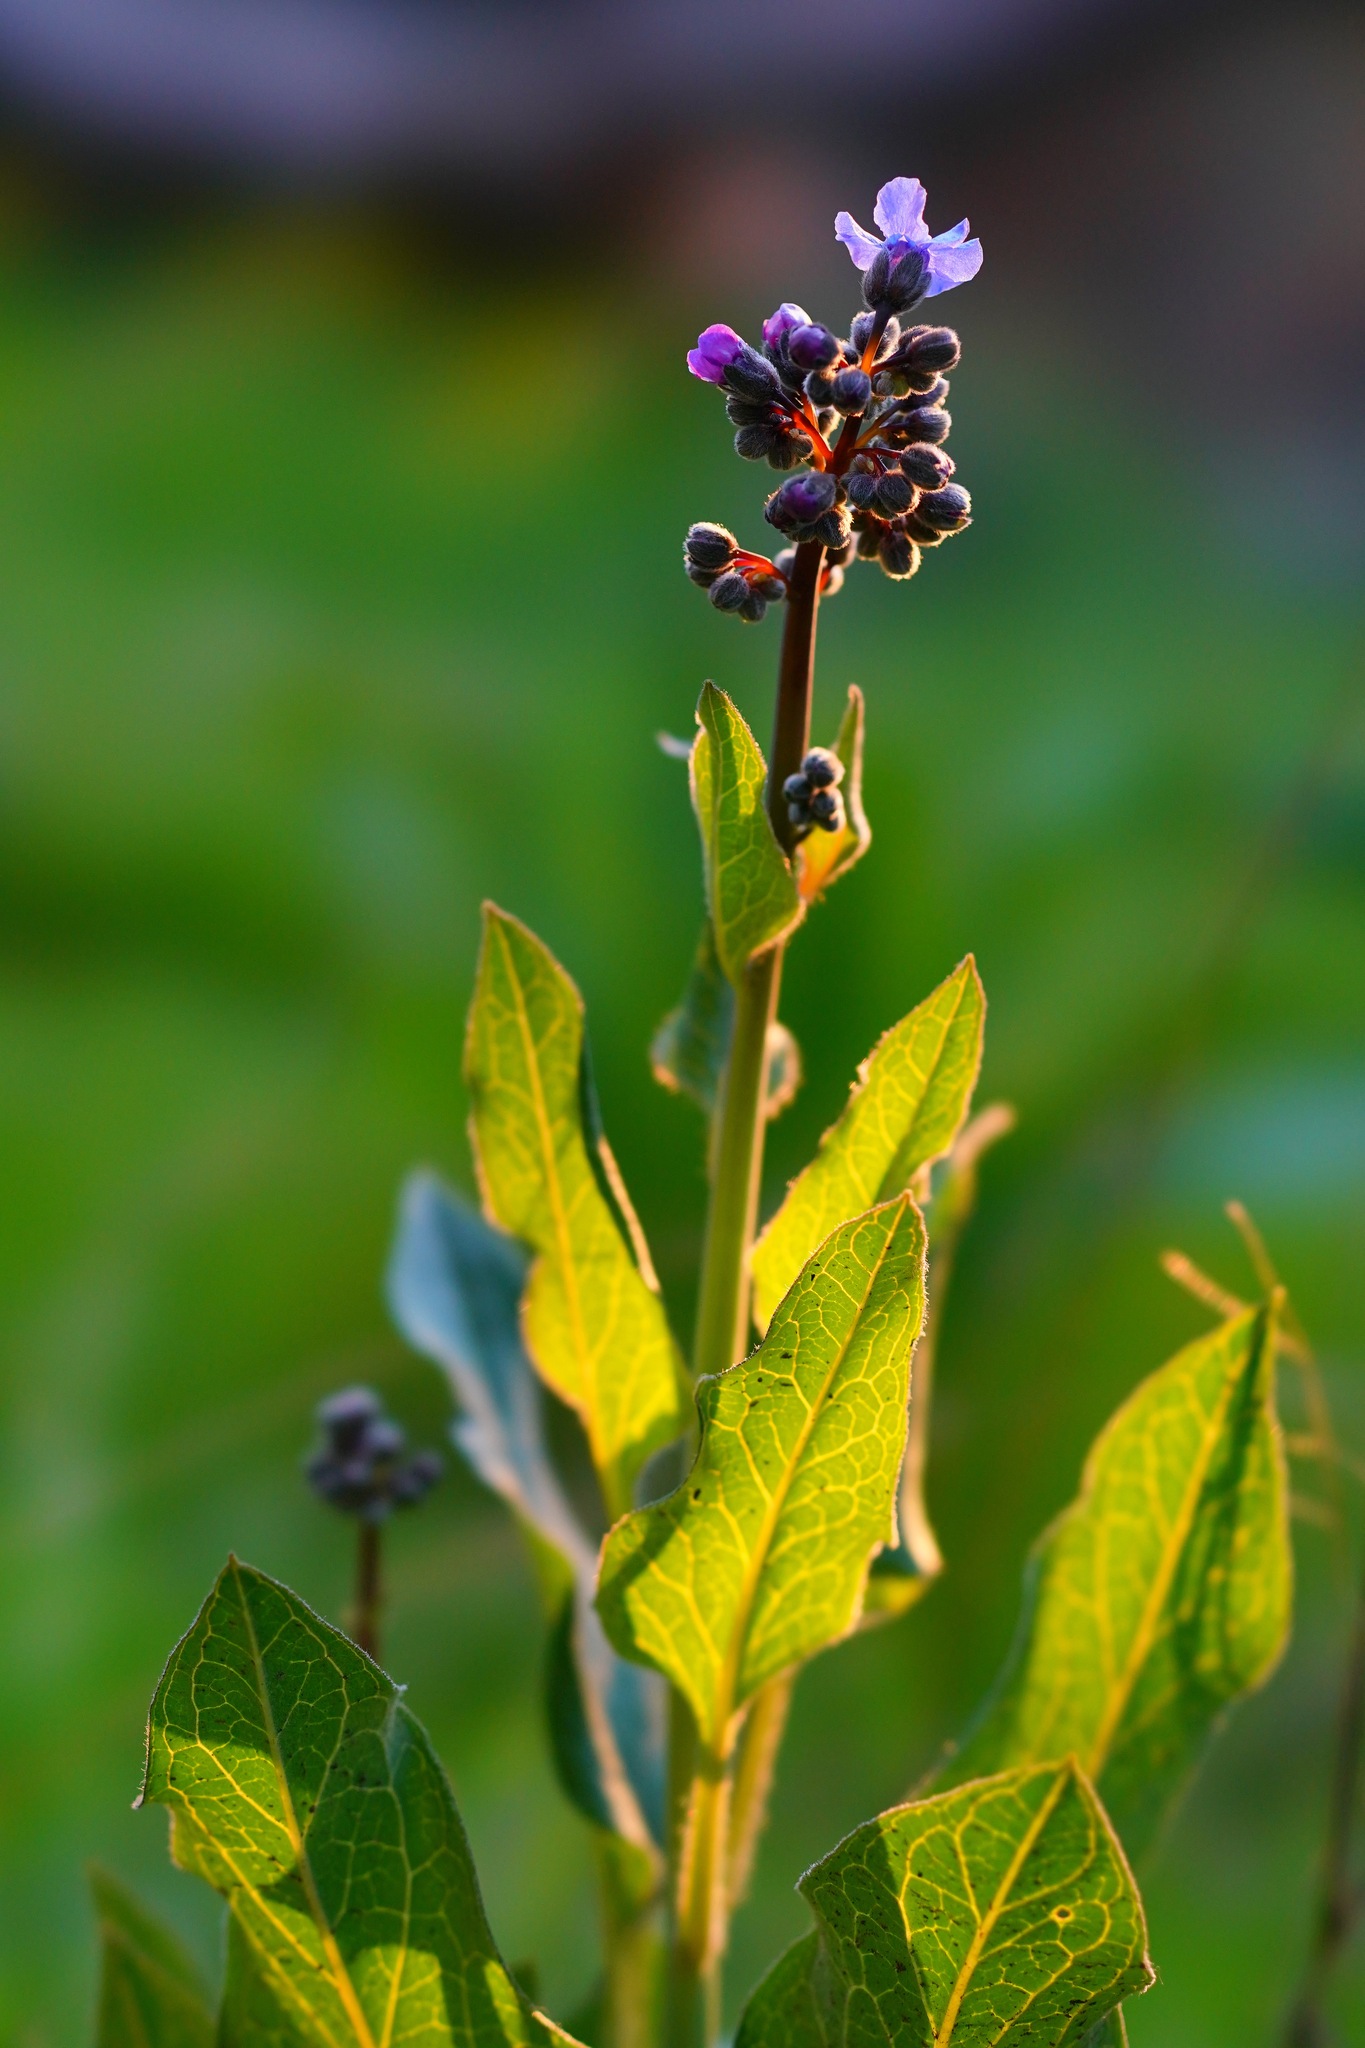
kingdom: Plantae
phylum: Tracheophyta
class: Magnoliopsida
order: Boraginales
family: Boraginaceae
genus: Adelinia
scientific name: Adelinia grande
